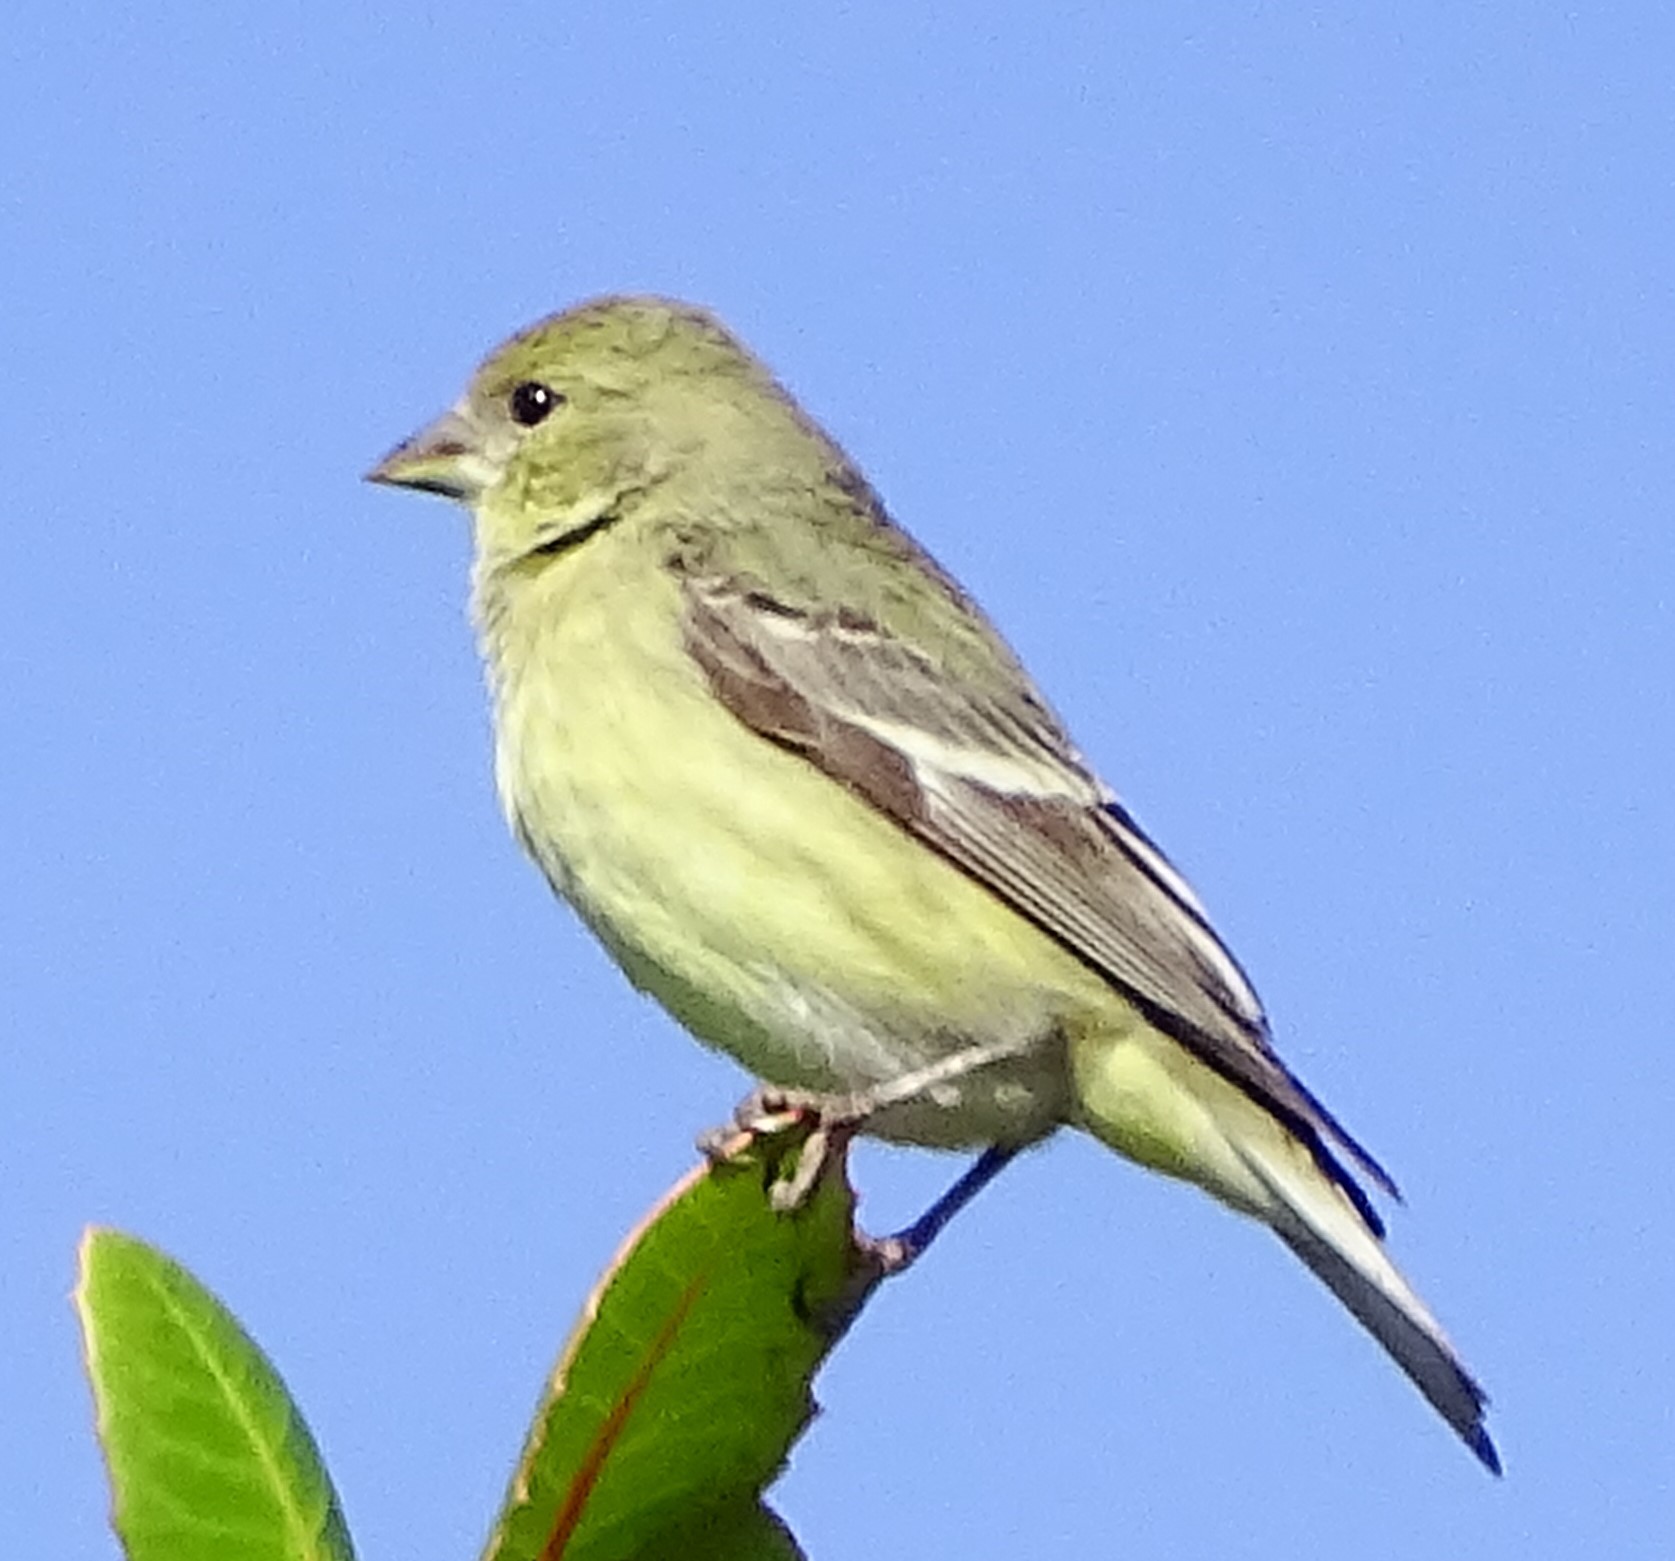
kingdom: Animalia
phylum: Chordata
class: Aves
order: Passeriformes
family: Fringillidae
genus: Spinus
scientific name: Spinus psaltria
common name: Lesser goldfinch
